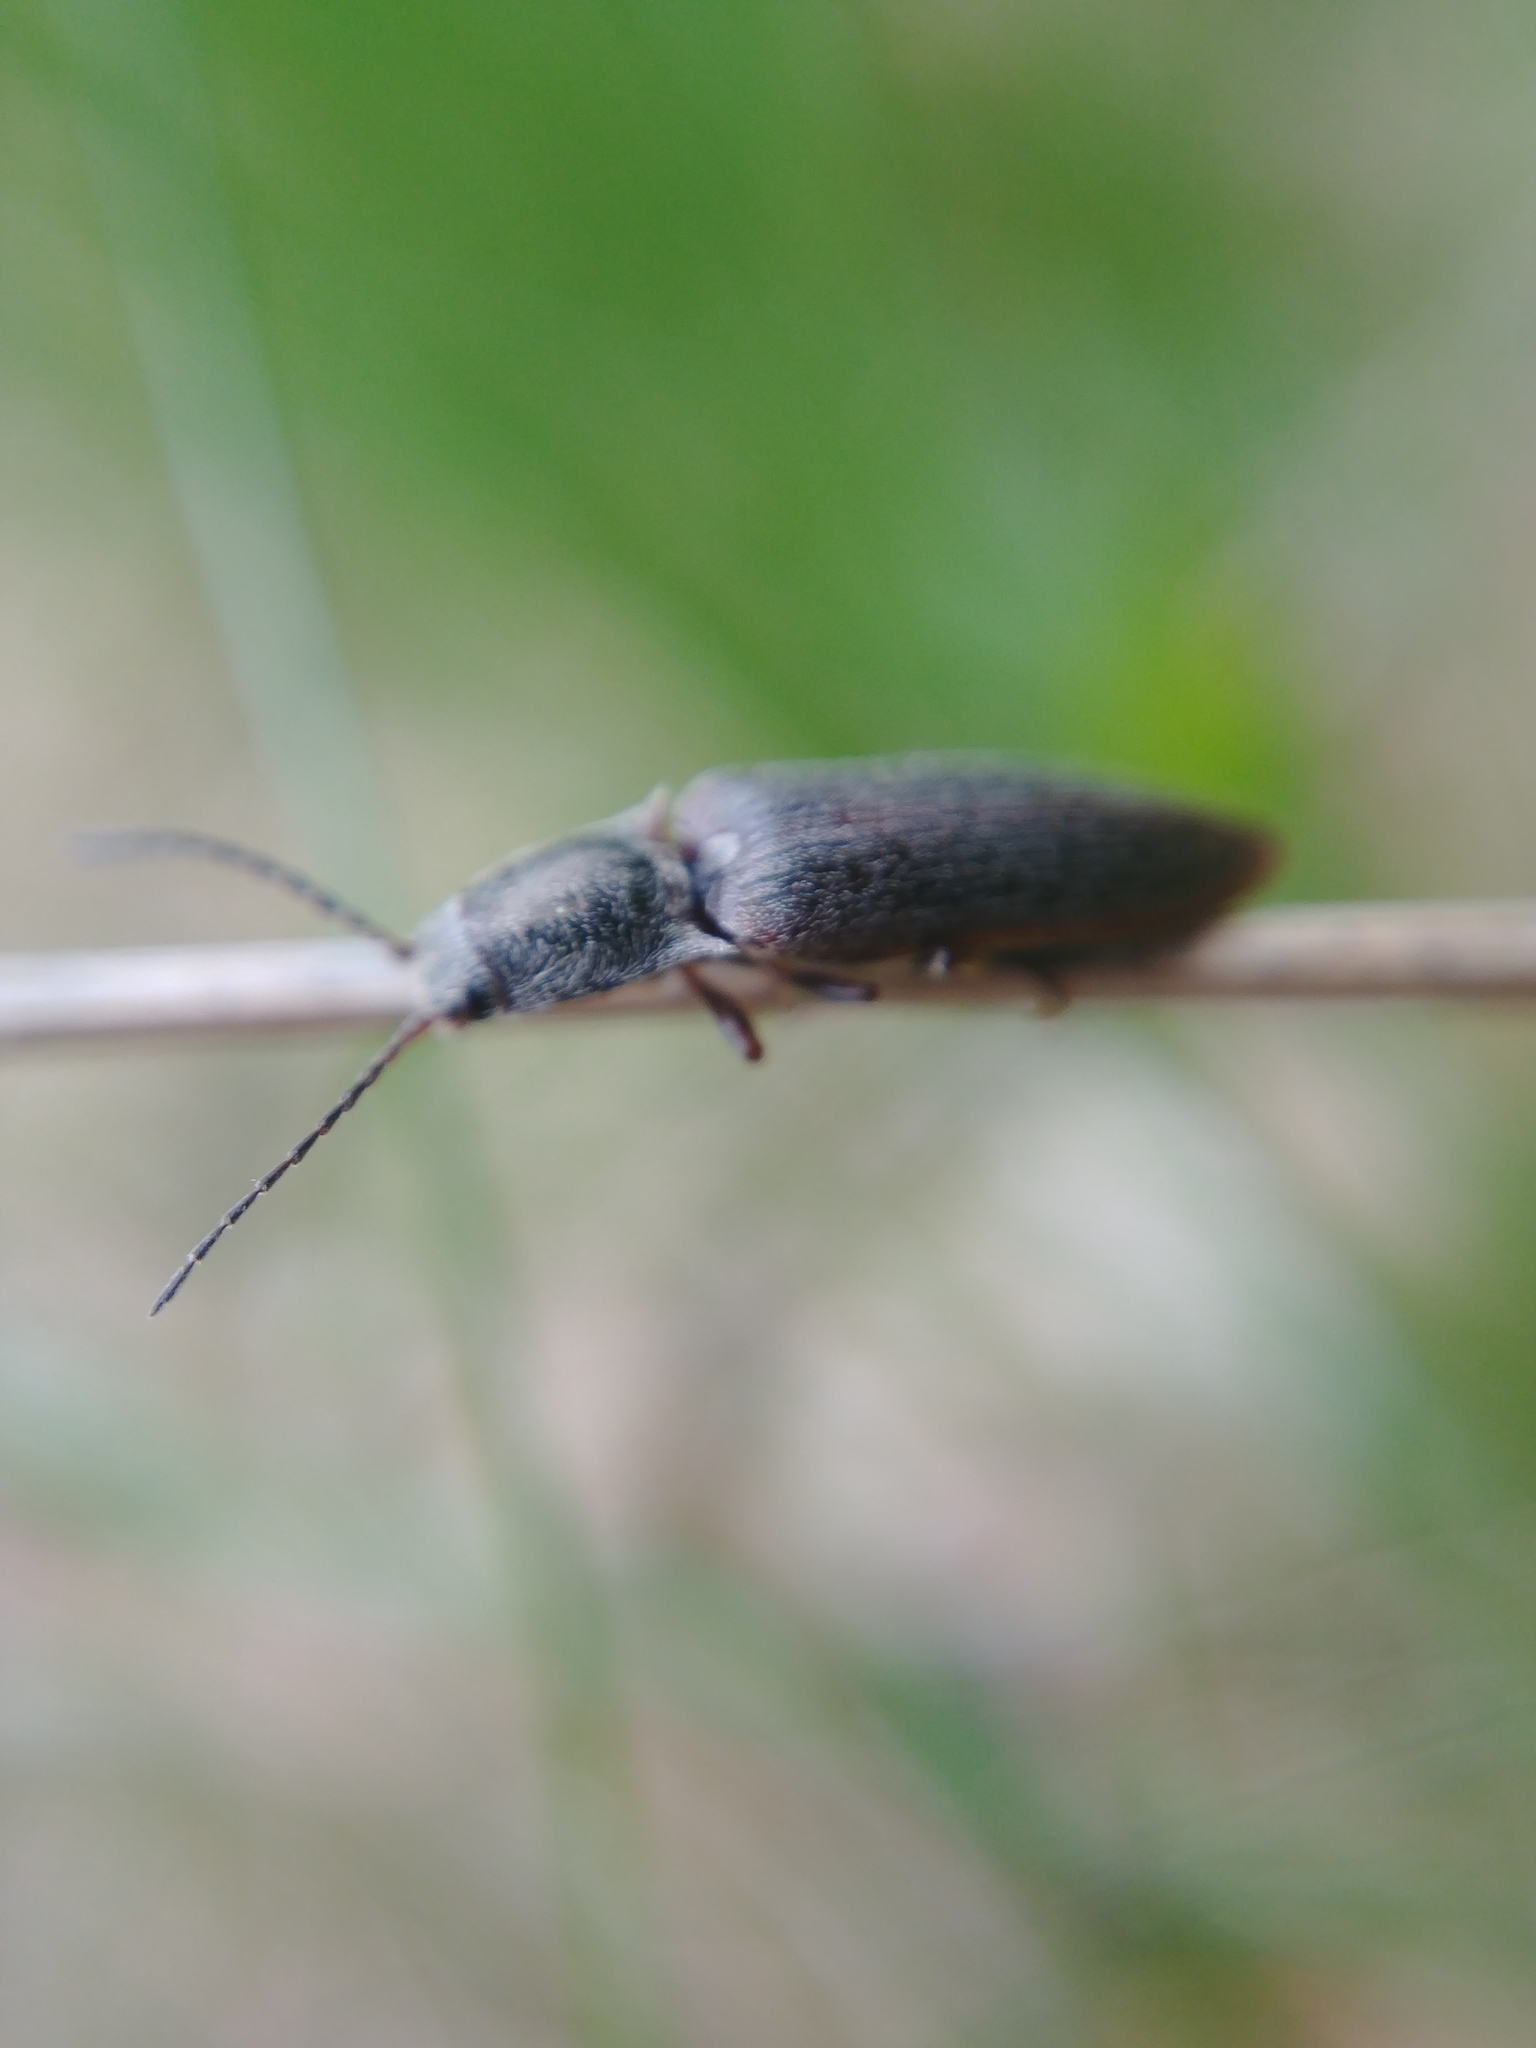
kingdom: Animalia
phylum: Arthropoda
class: Insecta
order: Coleoptera
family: Elateridae
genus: Sylvanelater
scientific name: Sylvanelater cylindriformis
